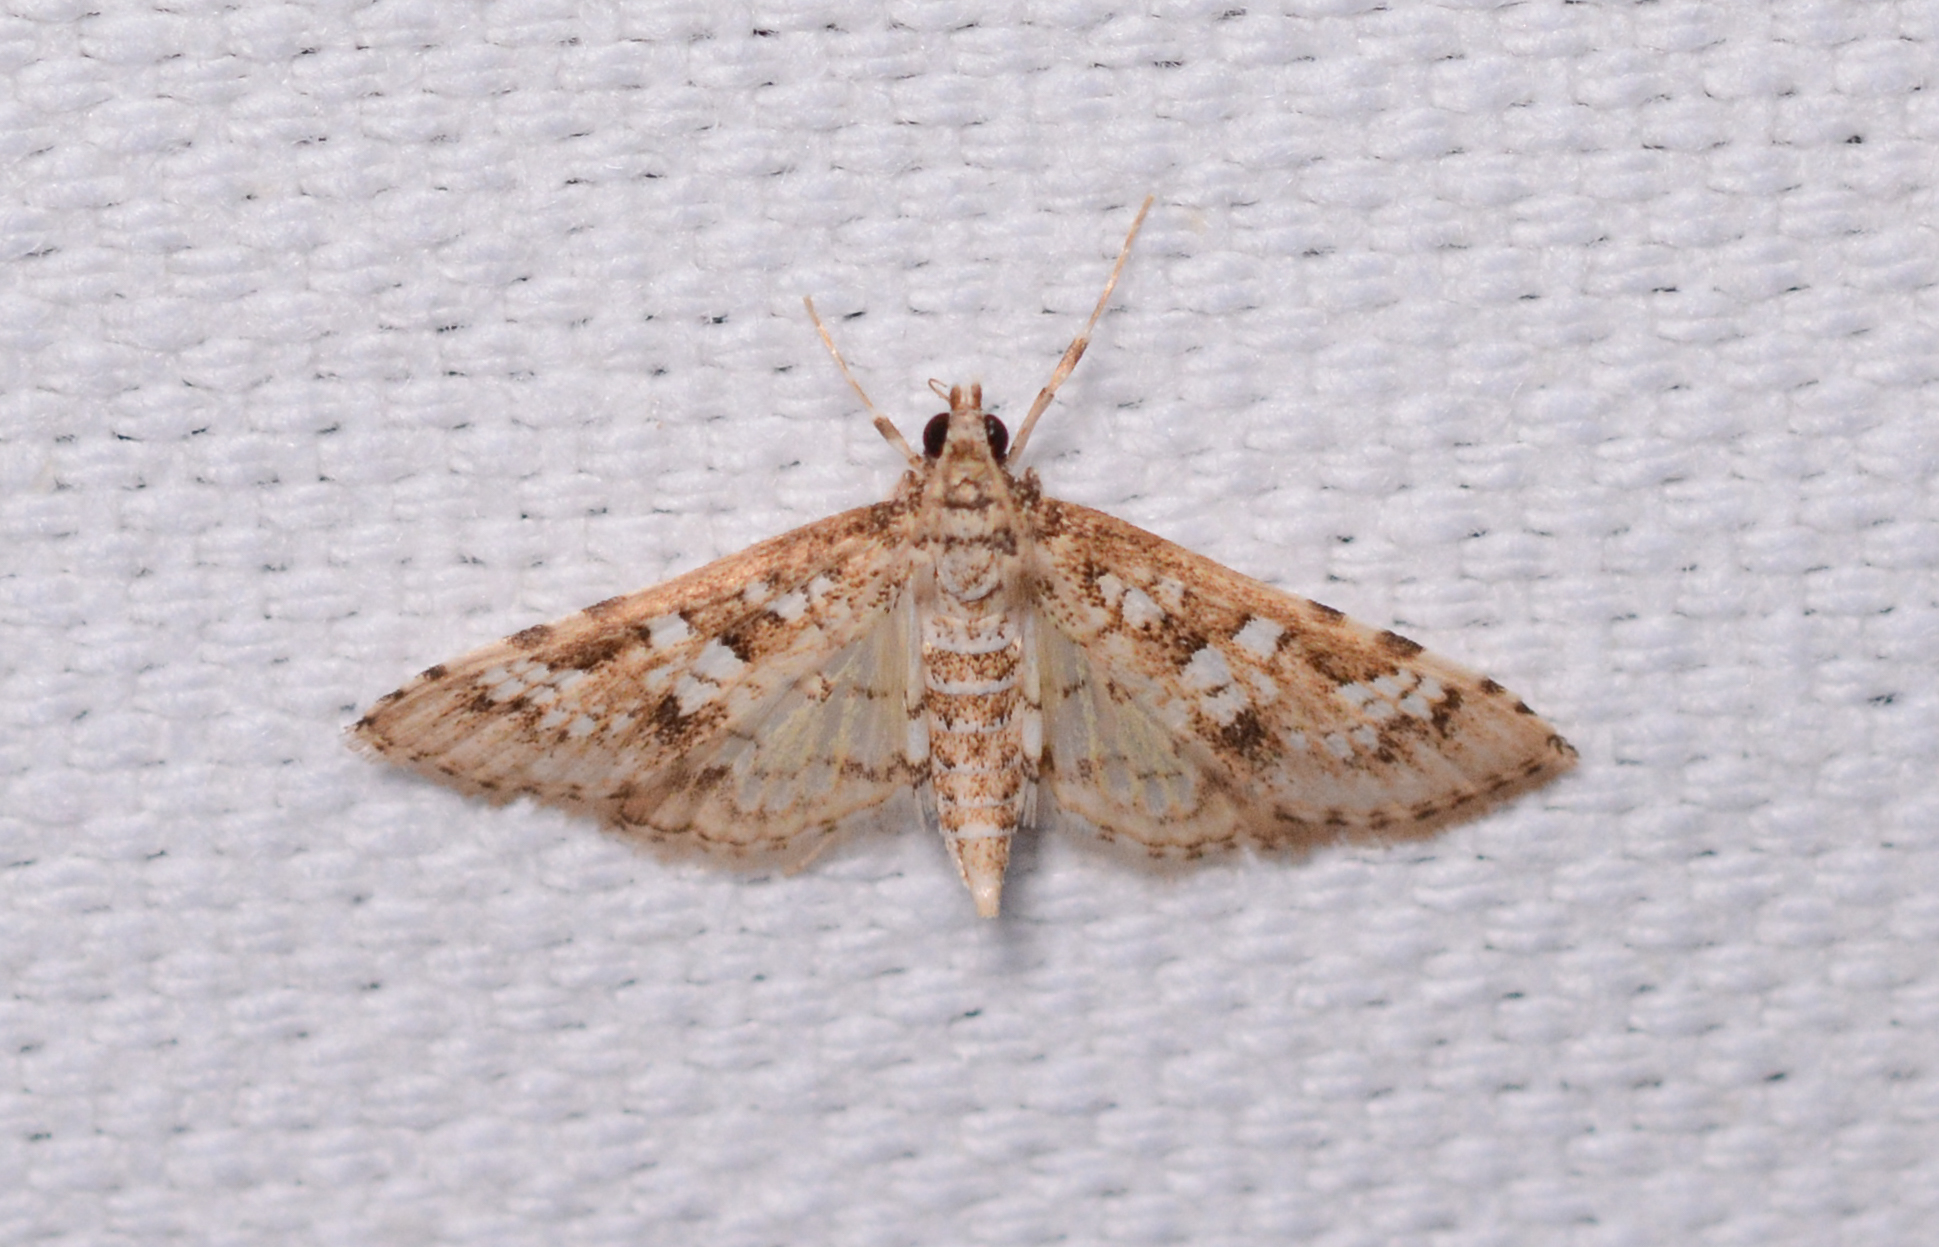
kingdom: Animalia
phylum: Arthropoda
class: Insecta
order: Lepidoptera
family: Crambidae
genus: Samea
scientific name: Samea multiplicalis
